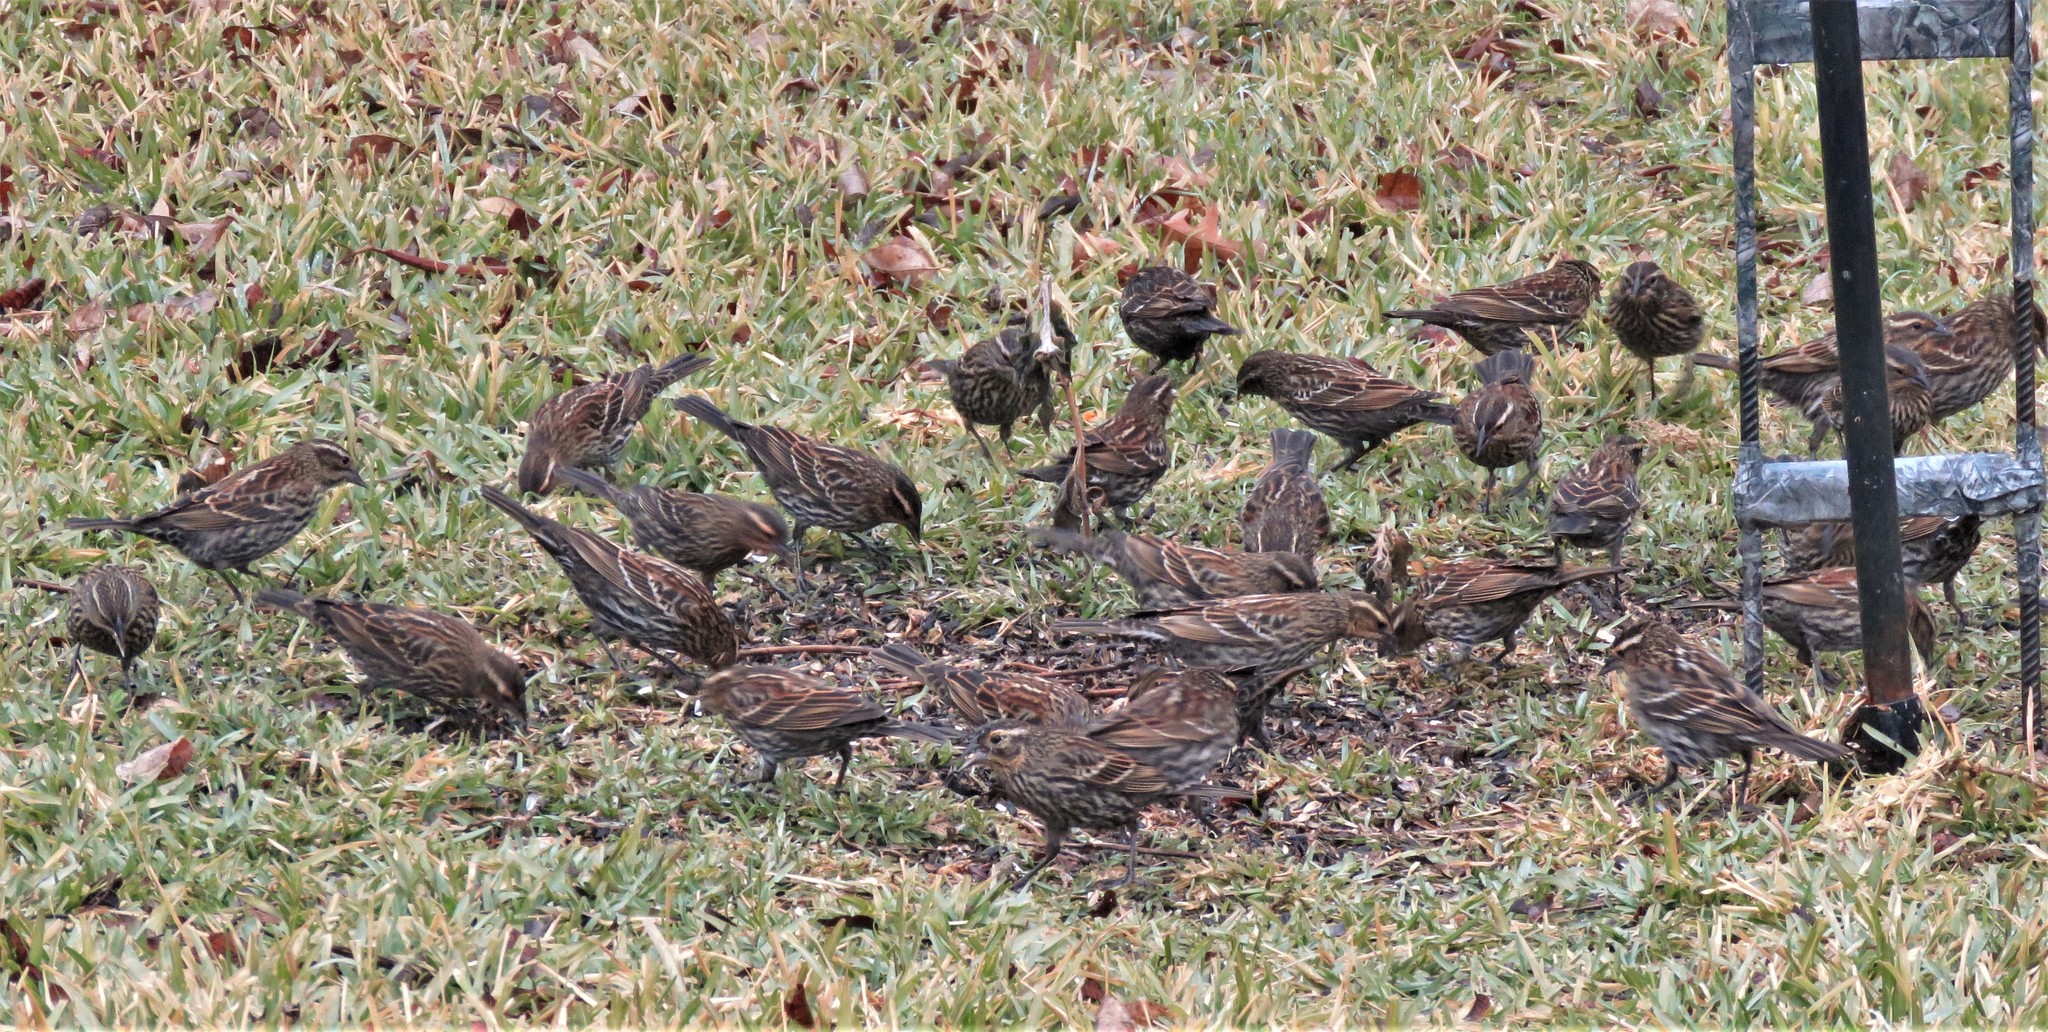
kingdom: Animalia
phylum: Chordata
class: Aves
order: Passeriformes
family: Icteridae
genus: Agelaius
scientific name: Agelaius phoeniceus
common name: Red-winged blackbird
